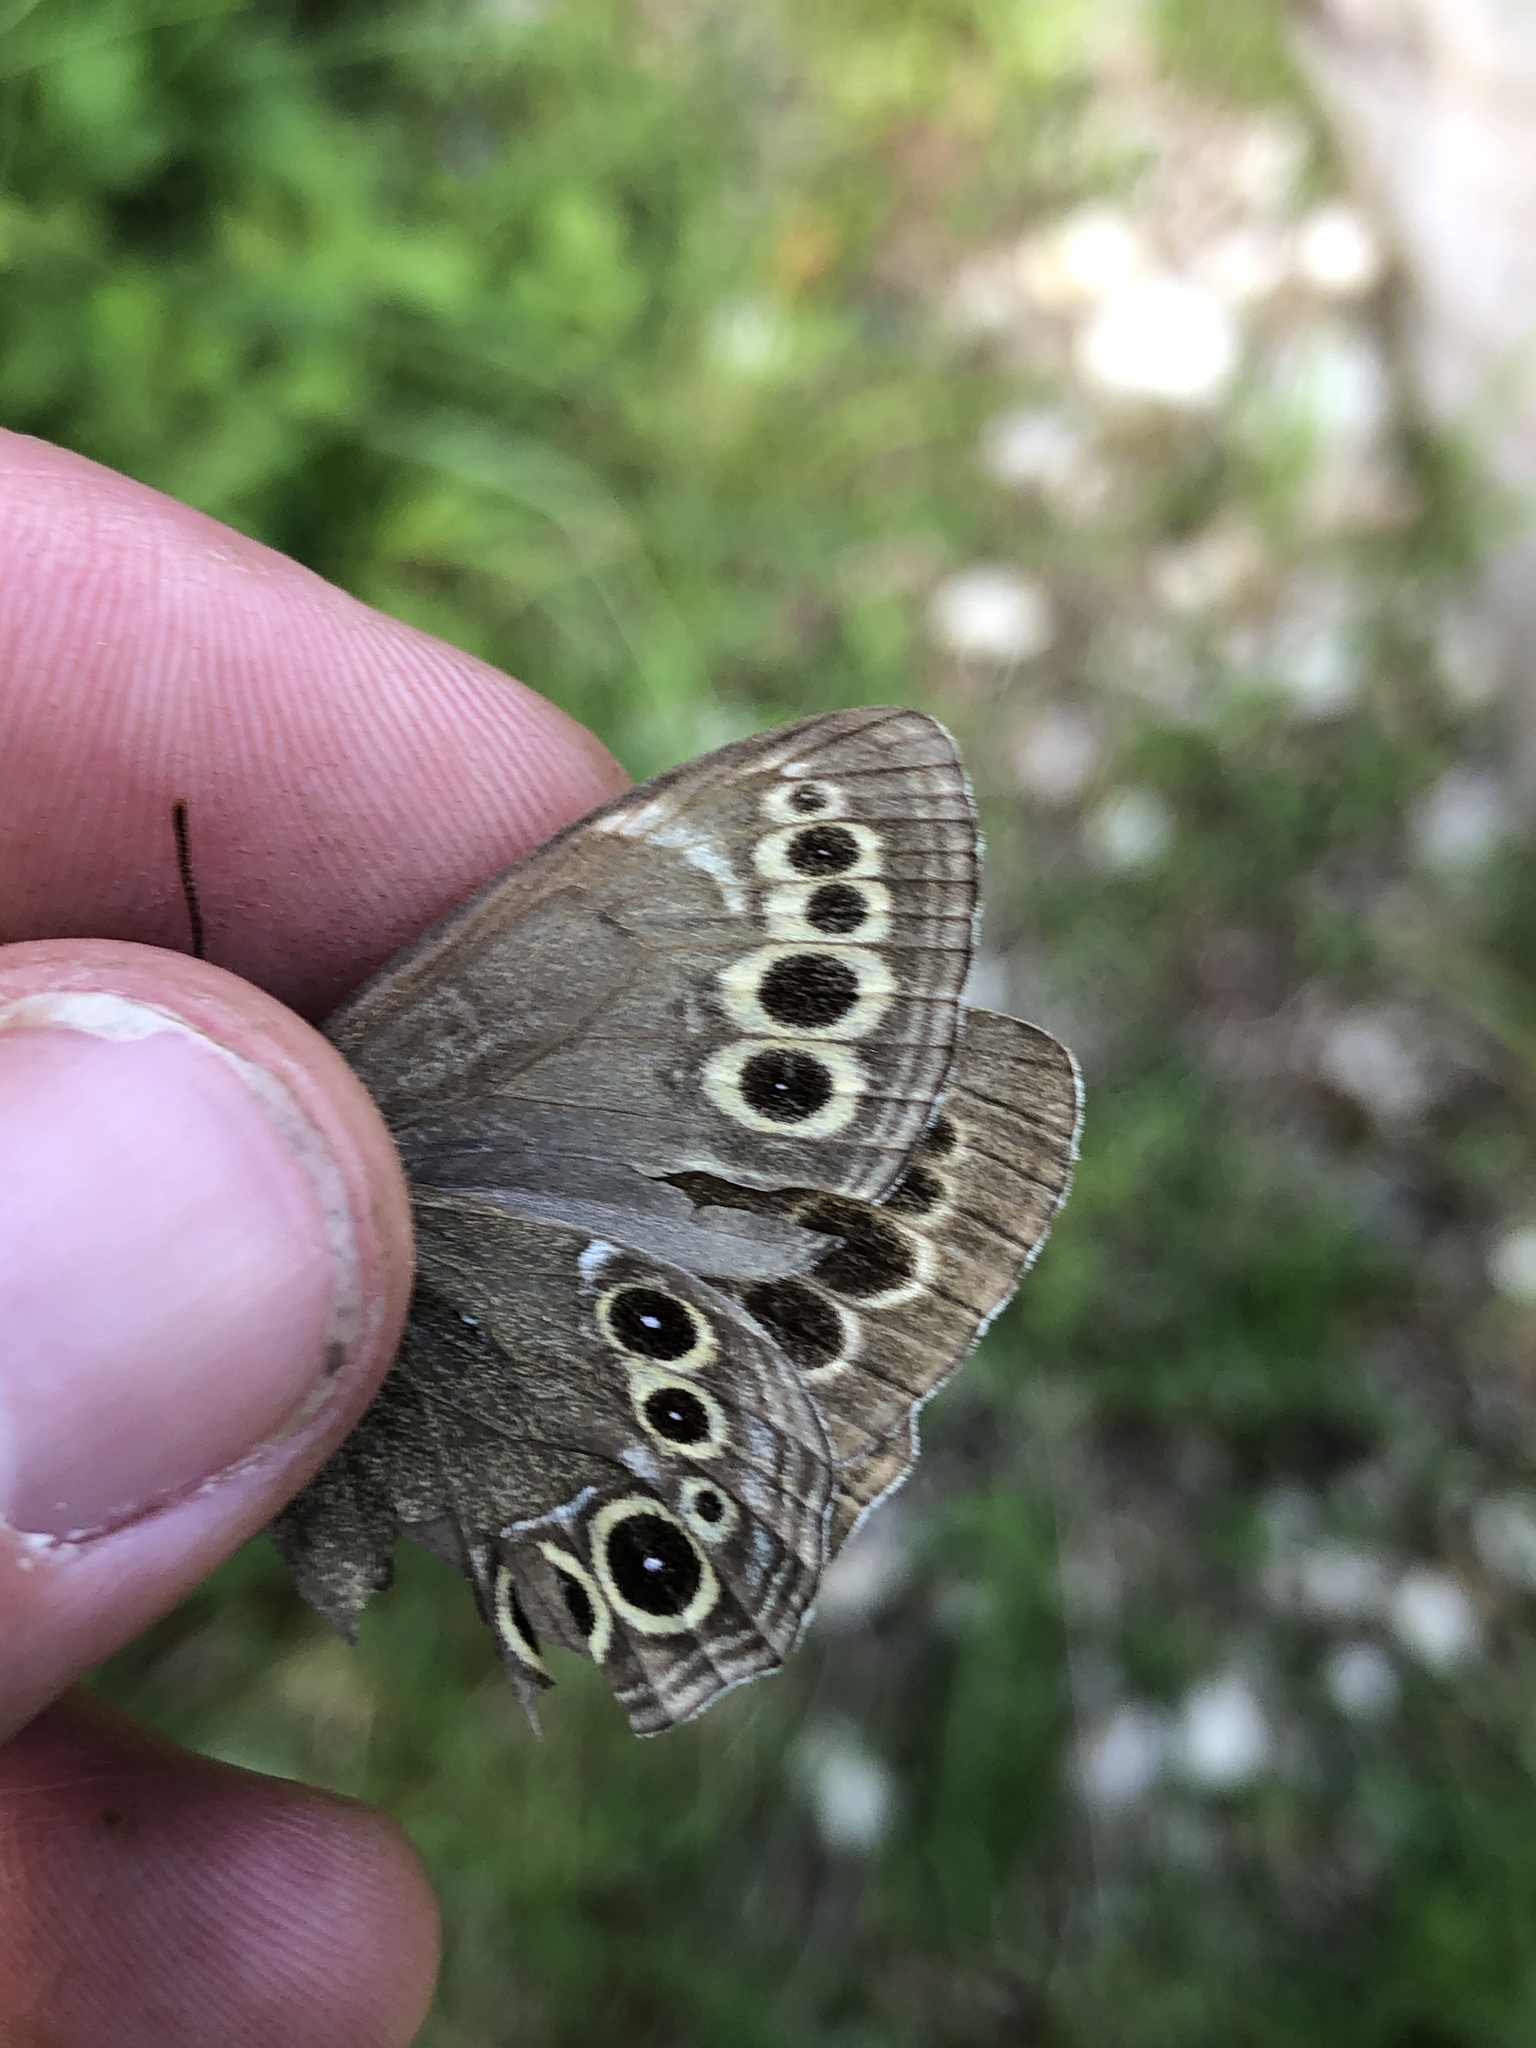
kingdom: Animalia
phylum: Arthropoda
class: Insecta
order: Lepidoptera
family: Nymphalidae
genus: Pararge
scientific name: Pararge Lopinga achine
